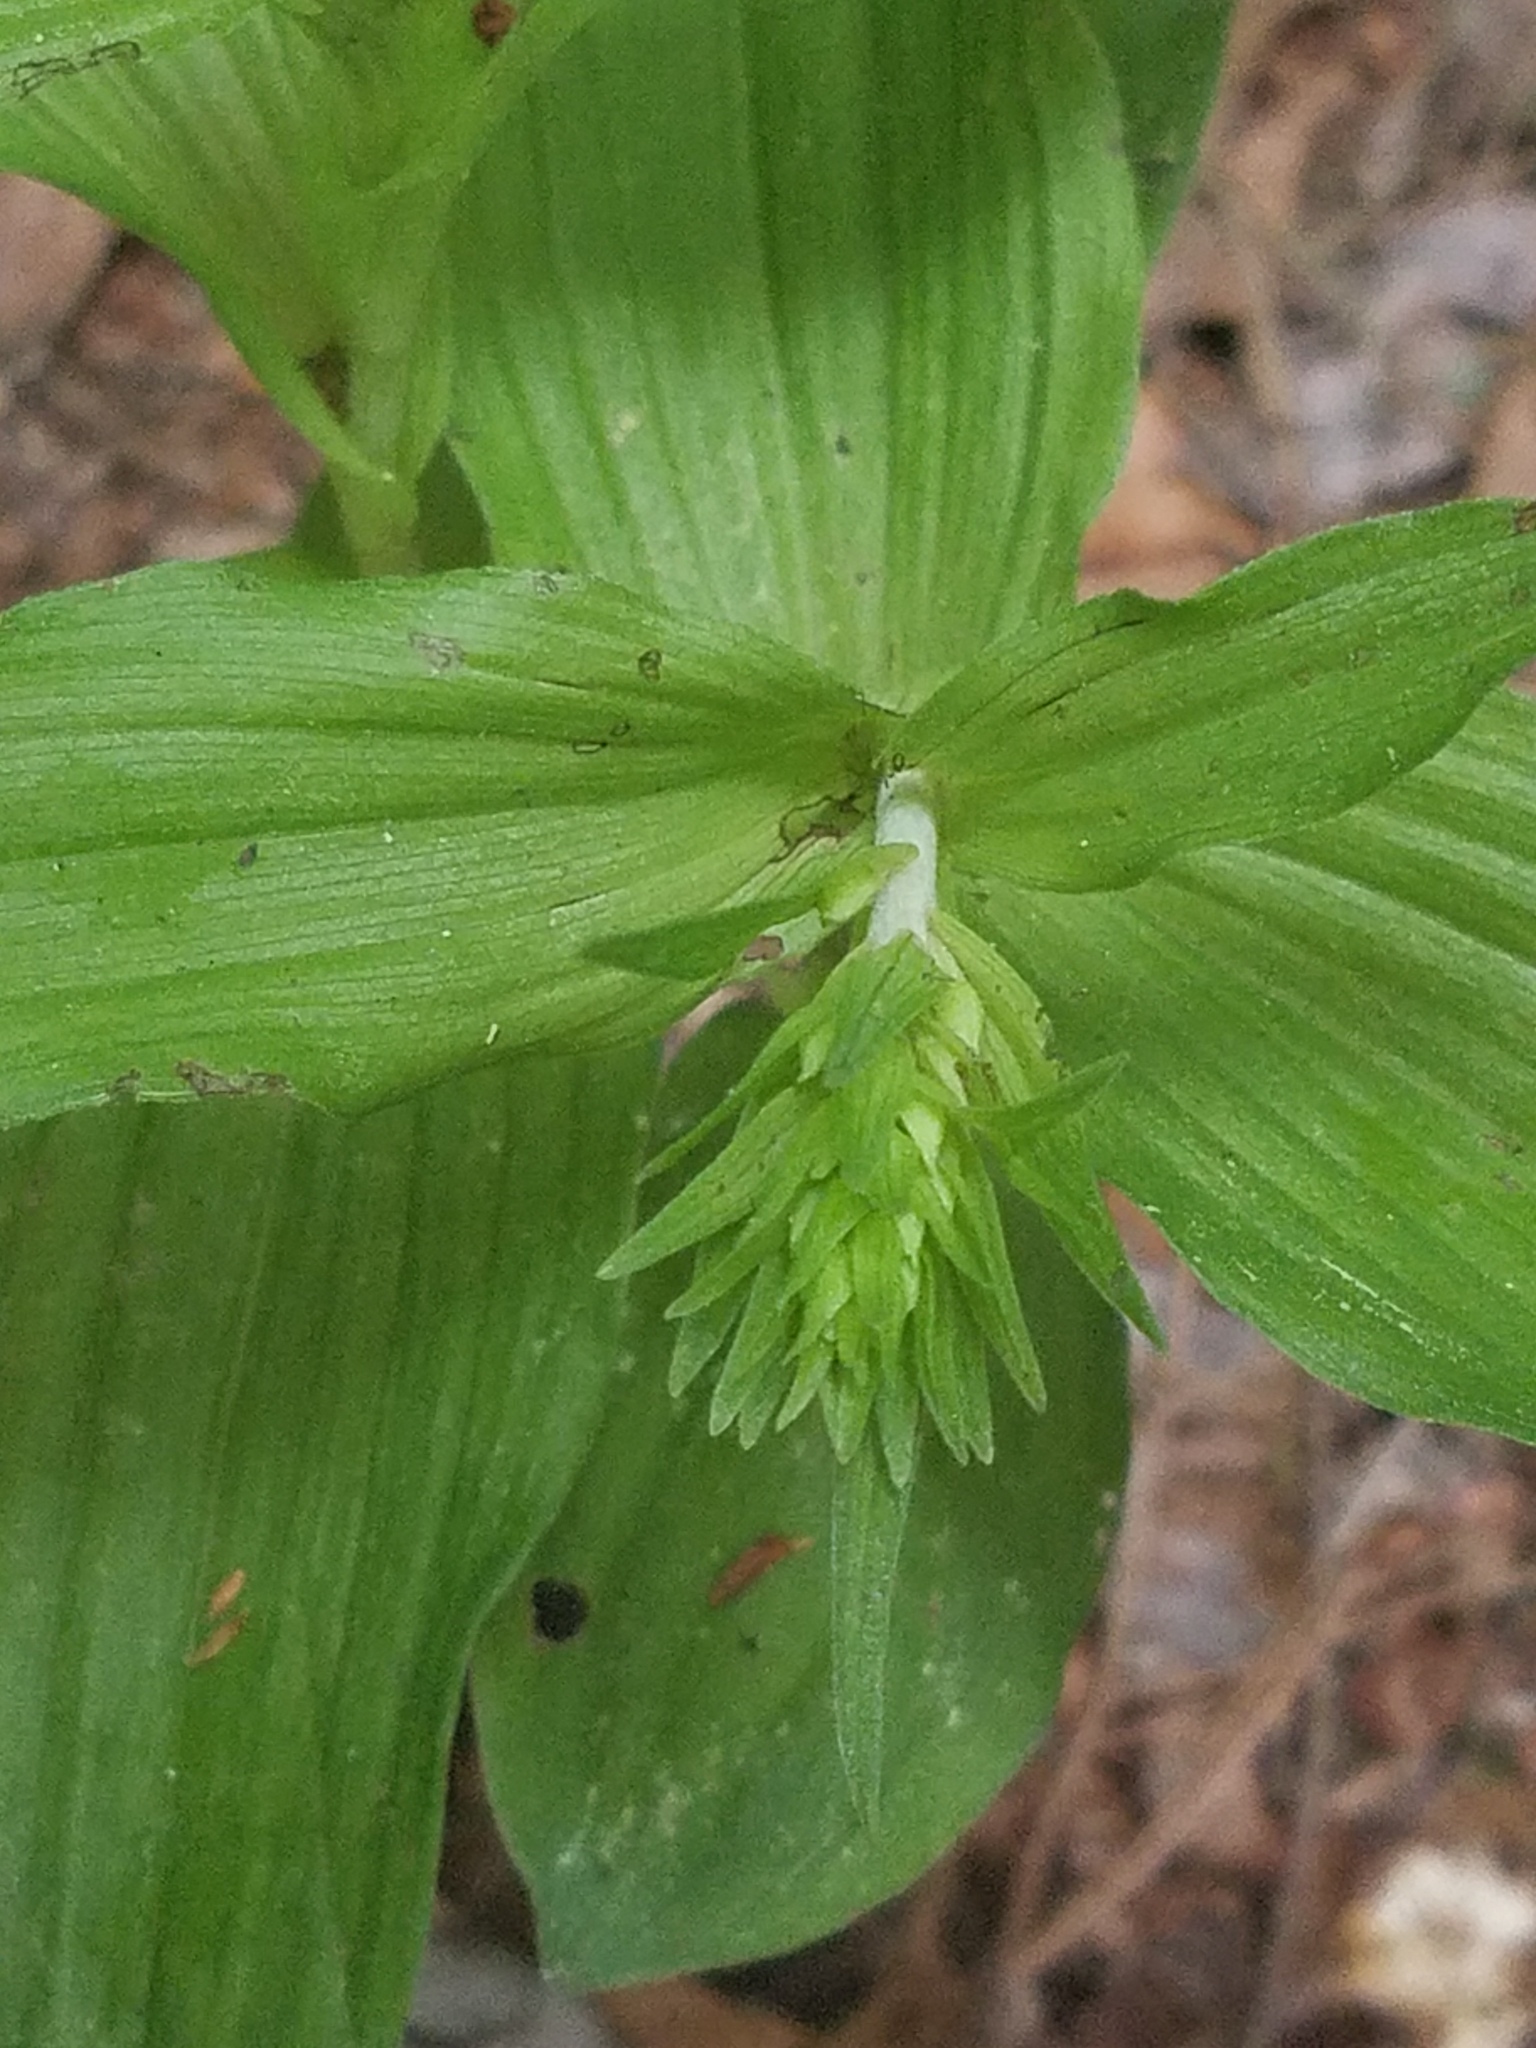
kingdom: Plantae
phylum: Tracheophyta
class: Liliopsida
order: Asparagales
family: Orchidaceae
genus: Epipactis
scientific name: Epipactis helleborine
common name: Broad-leaved helleborine
